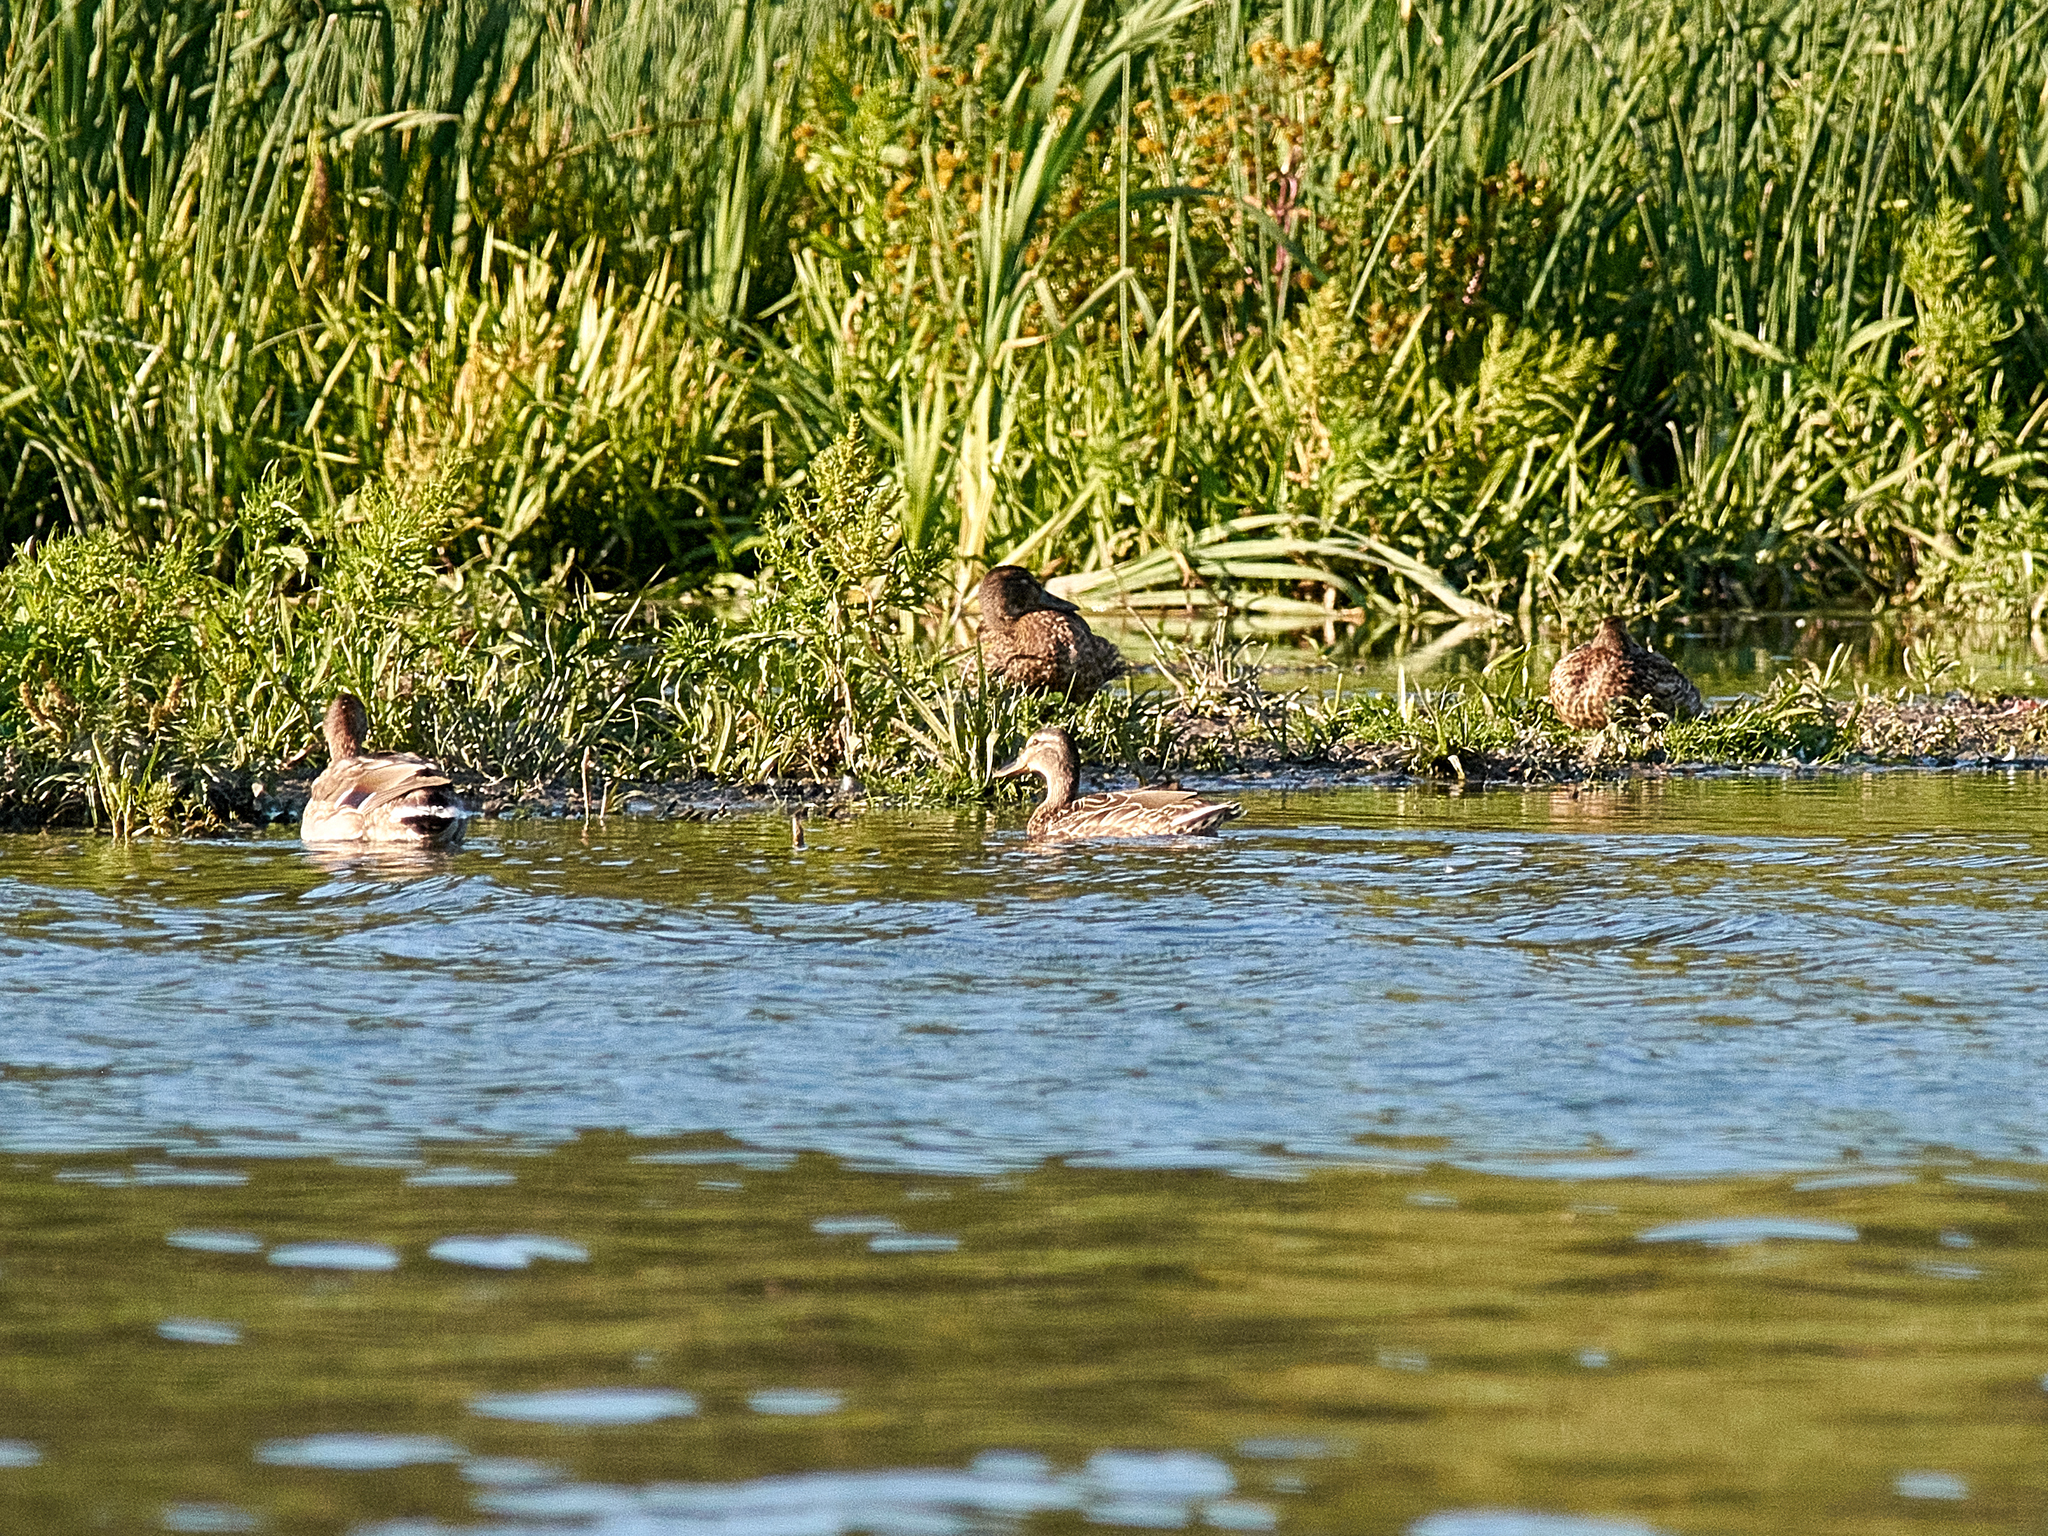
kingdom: Animalia
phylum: Chordata
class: Aves
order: Anseriformes
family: Anatidae
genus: Anas
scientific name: Anas platyrhynchos
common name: Mallard
